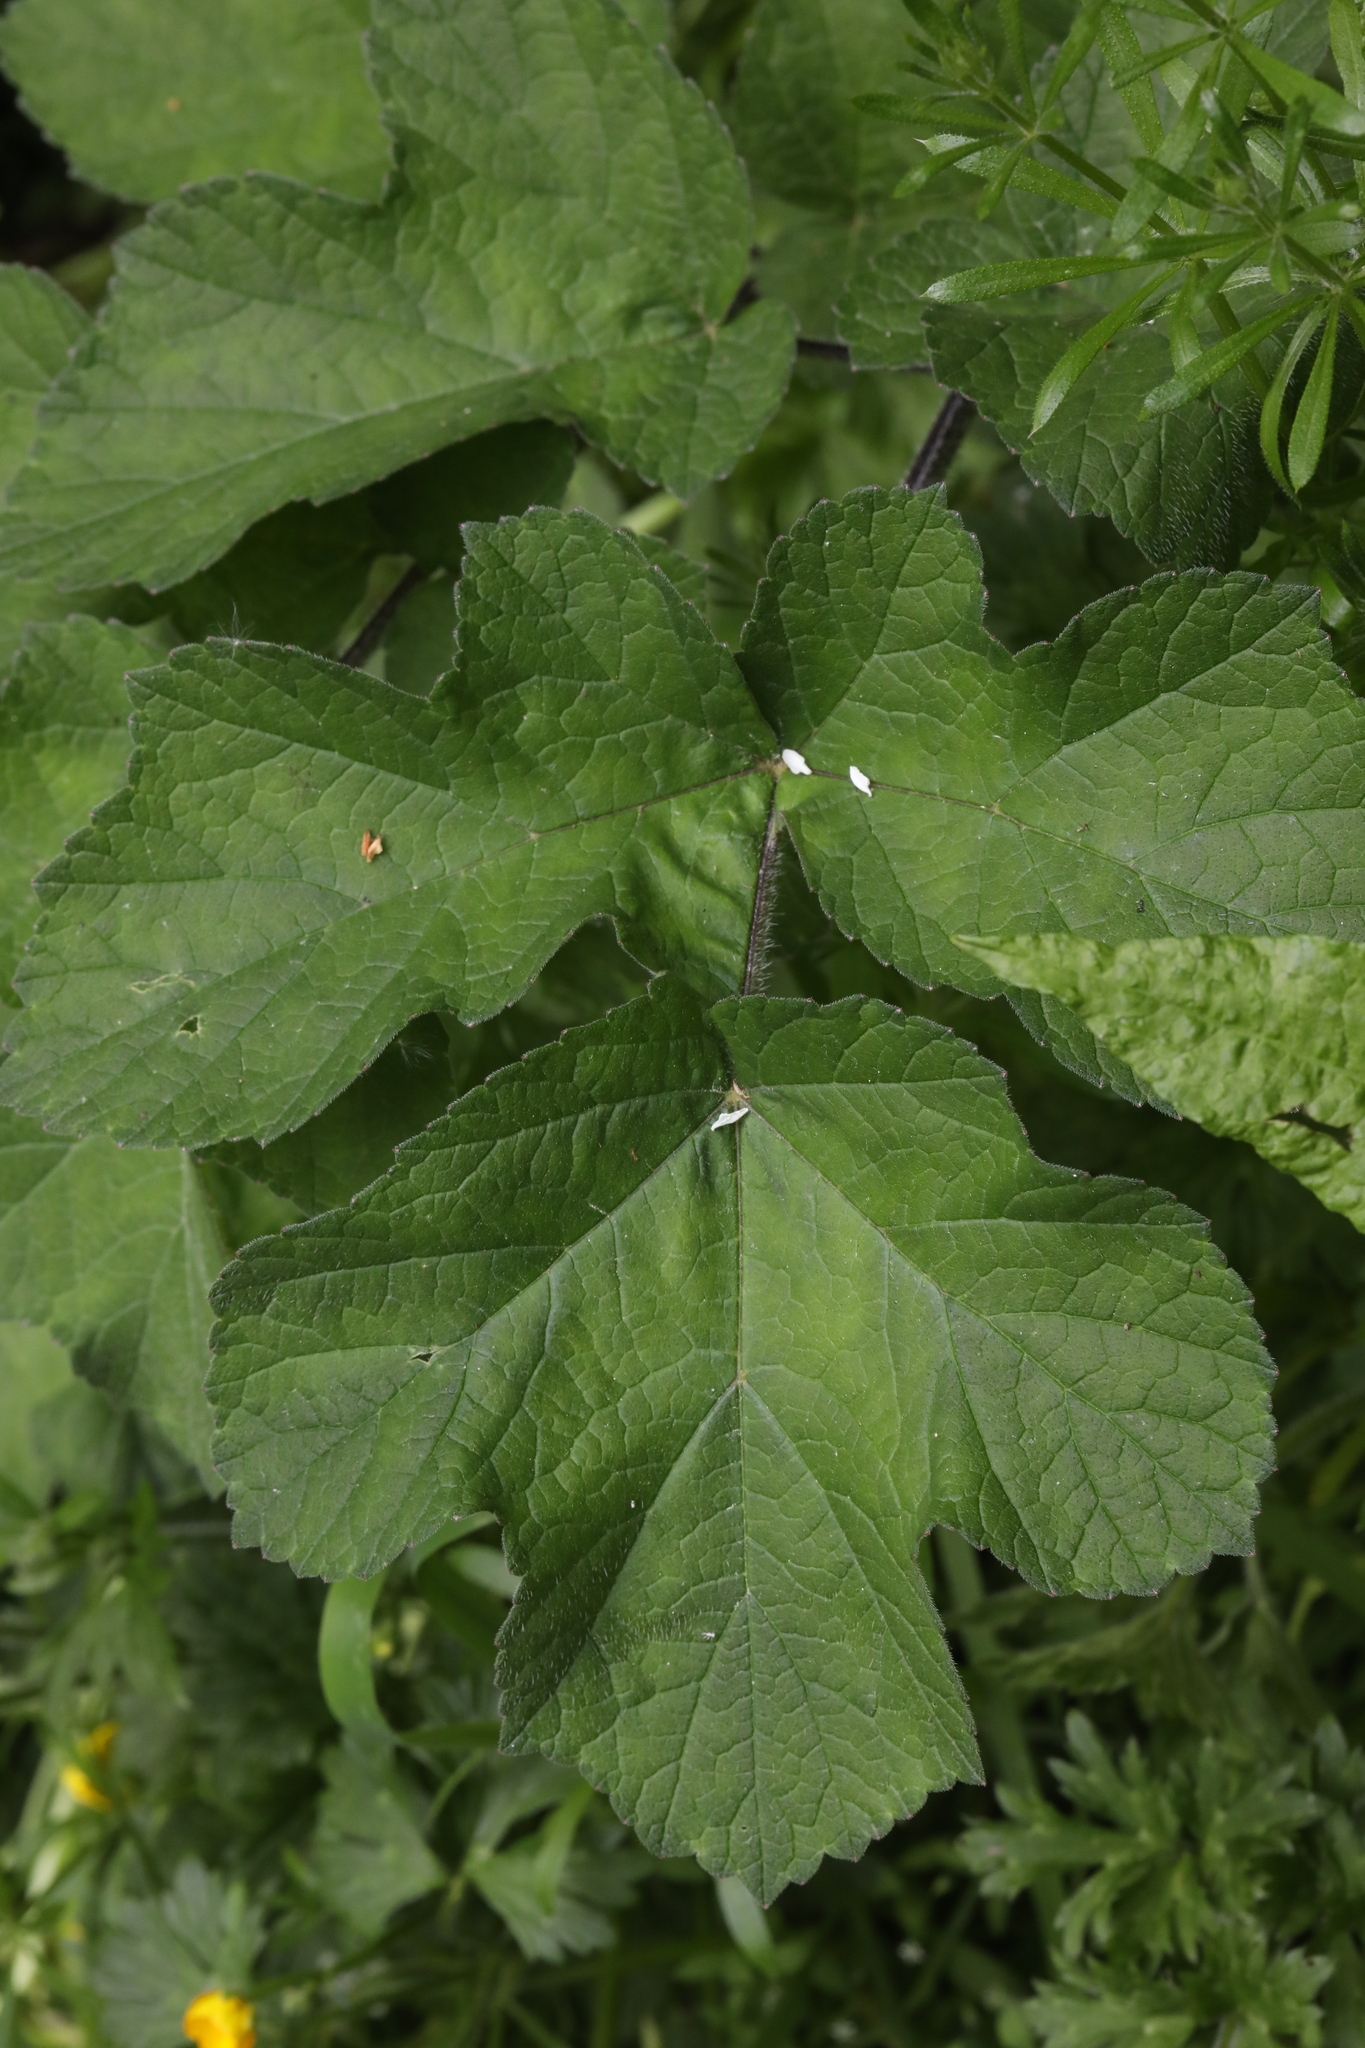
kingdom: Plantae
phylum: Tracheophyta
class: Magnoliopsida
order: Apiales
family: Apiaceae
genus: Heracleum
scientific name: Heracleum sphondylium
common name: Hogweed
